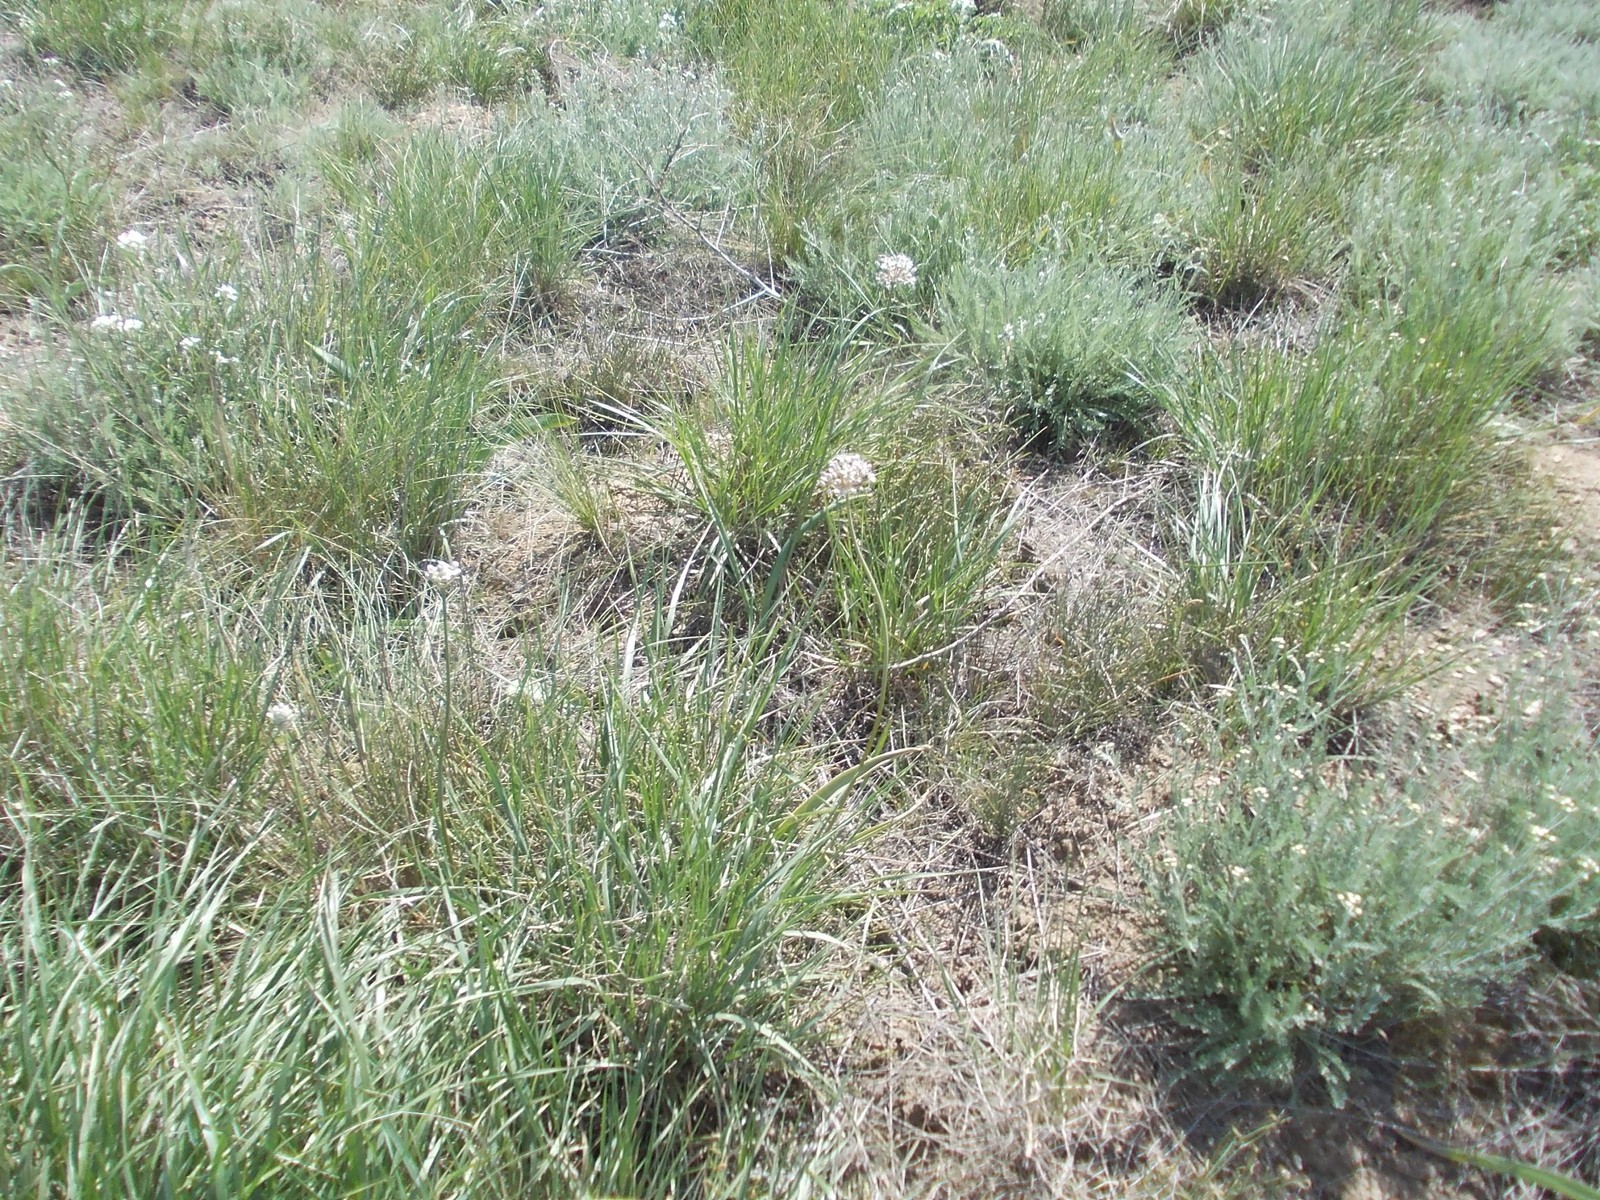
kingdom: Plantae
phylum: Tracheophyta
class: Liliopsida
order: Asparagales
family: Amaryllidaceae
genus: Allium
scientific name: Allium tulipifolium
